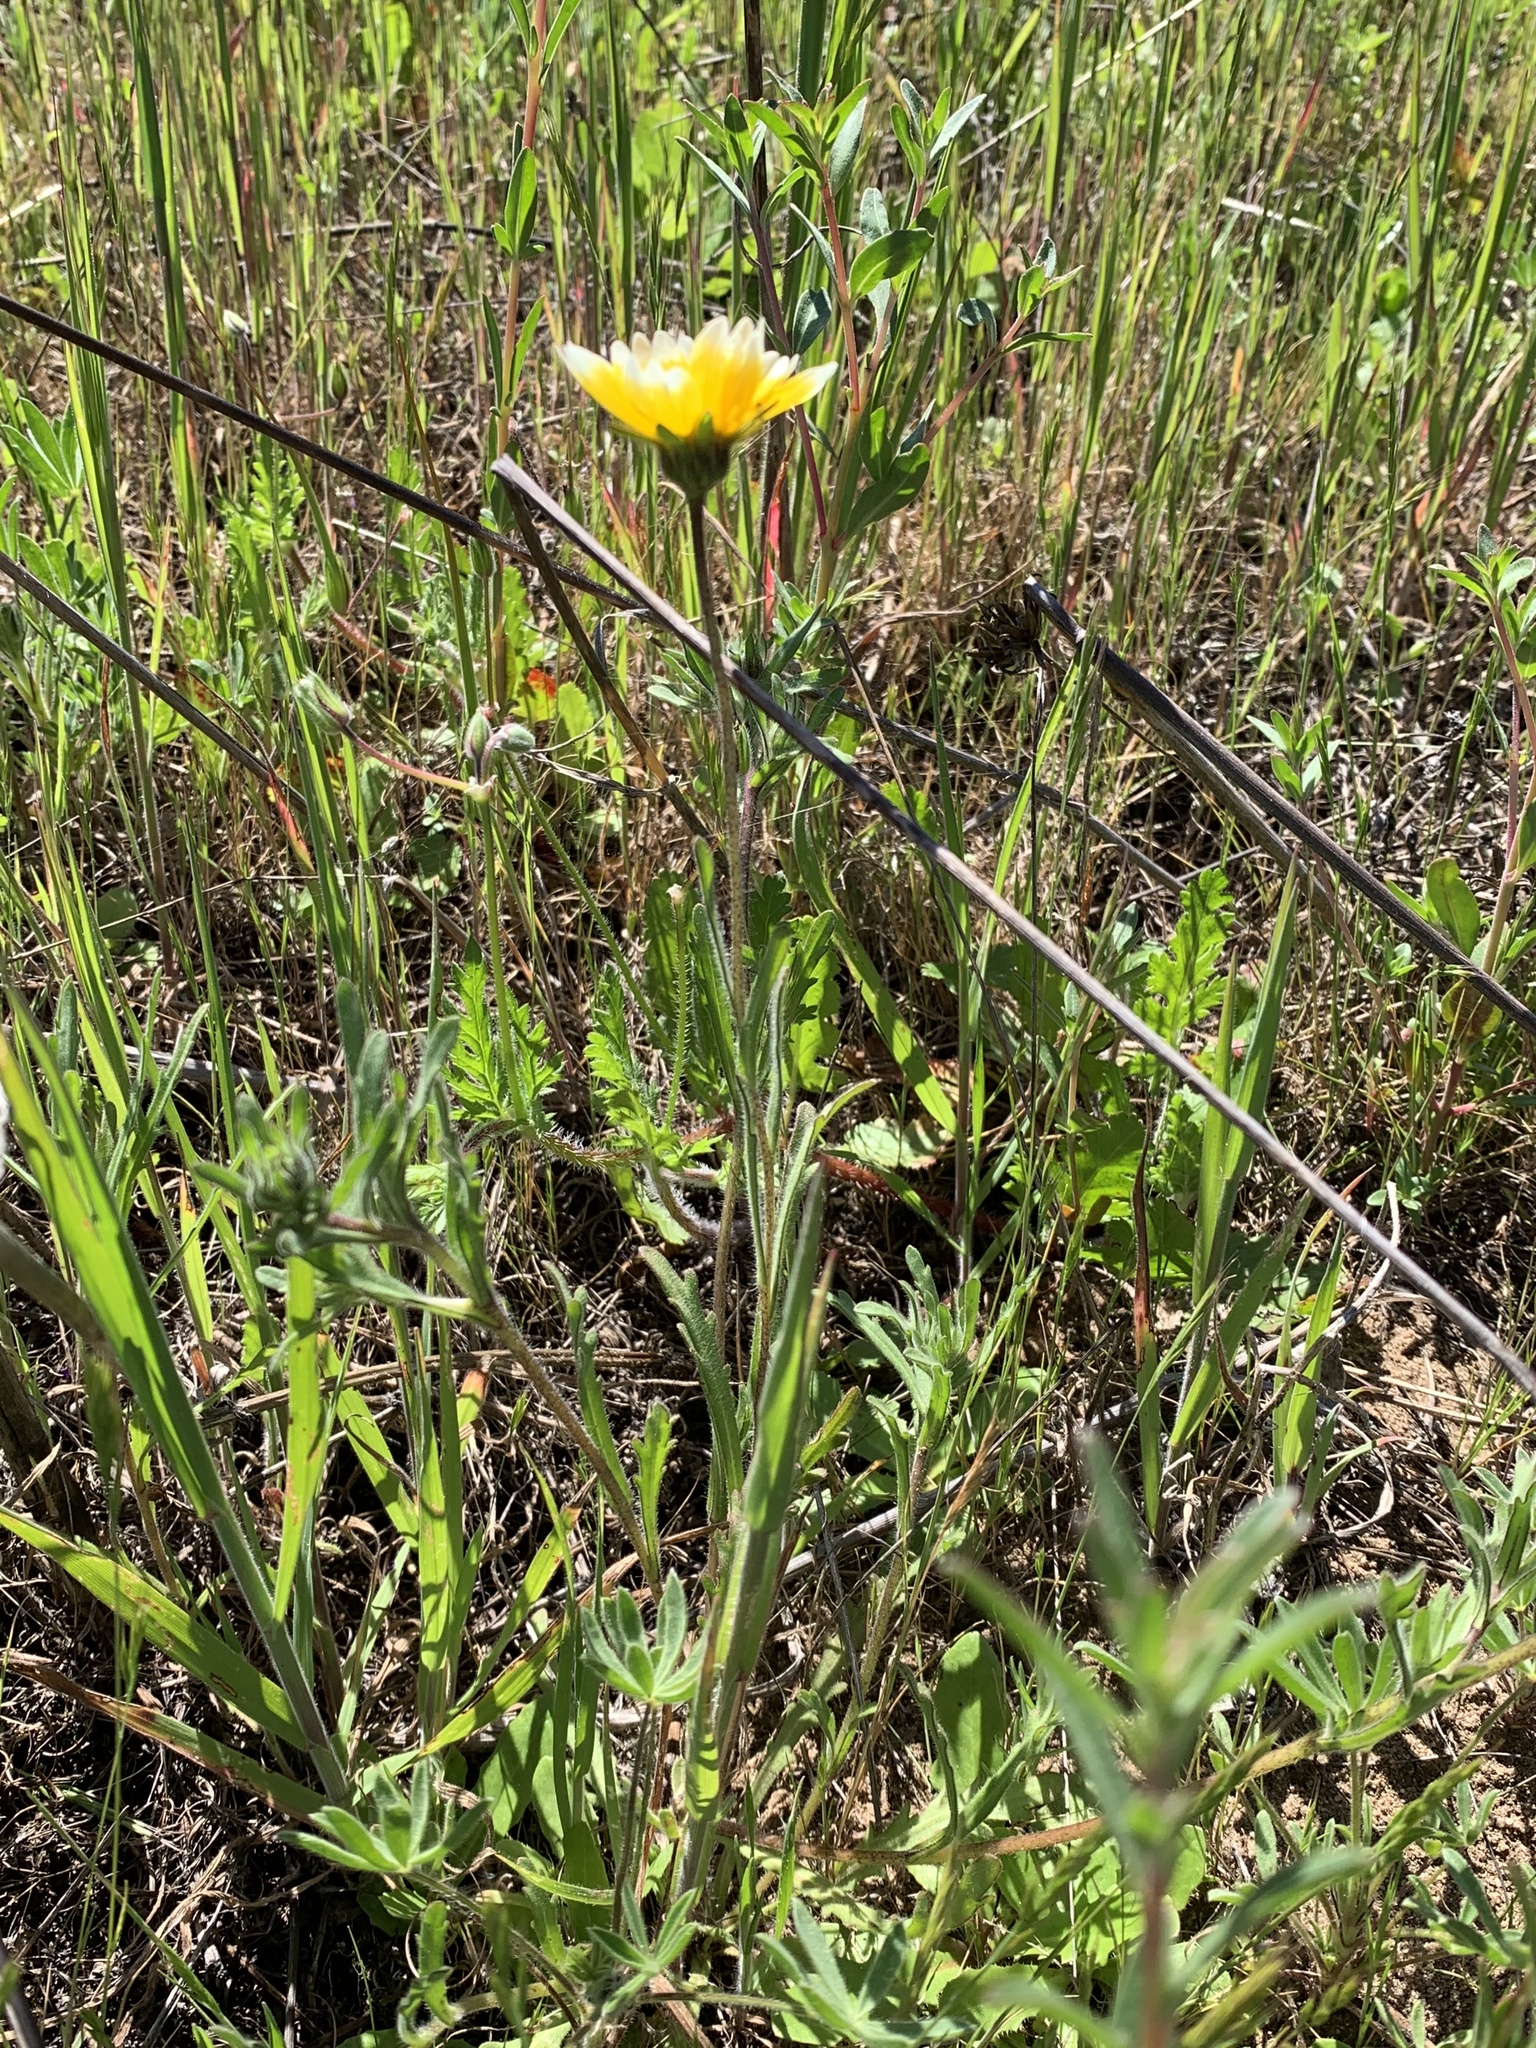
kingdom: Plantae
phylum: Tracheophyta
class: Magnoliopsida
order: Asterales
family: Asteraceae
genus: Layia
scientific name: Layia platyglossa
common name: Tidy-tips
